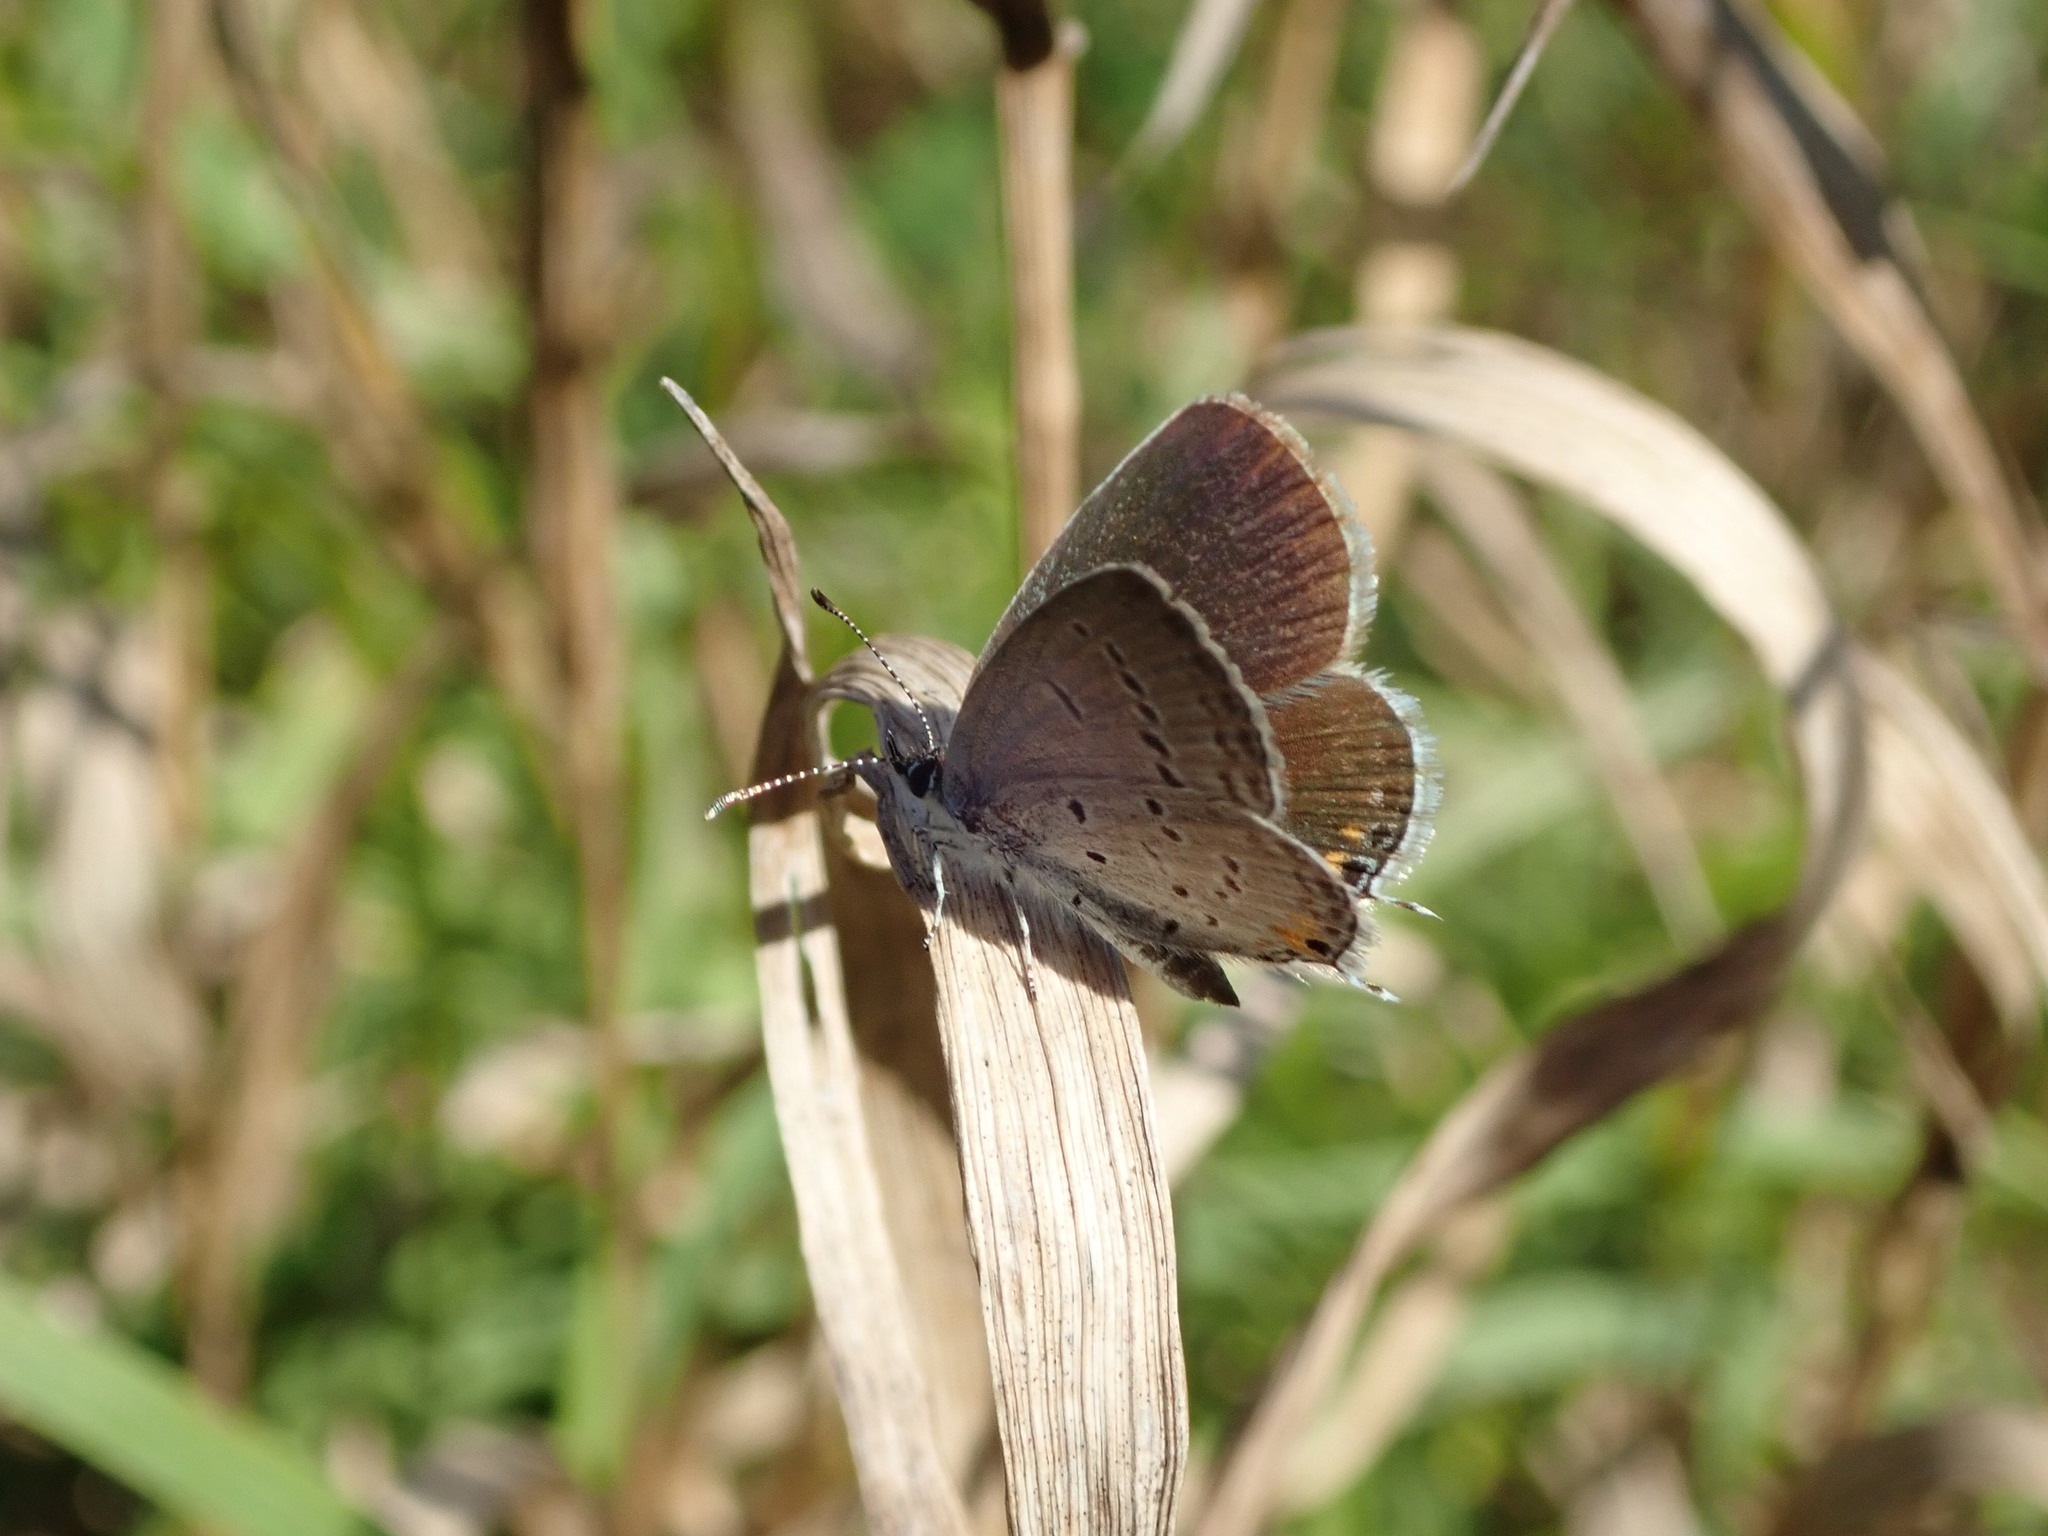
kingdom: Animalia
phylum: Arthropoda
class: Insecta
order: Lepidoptera
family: Lycaenidae
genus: Elkalyce
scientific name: Elkalyce comyntas
